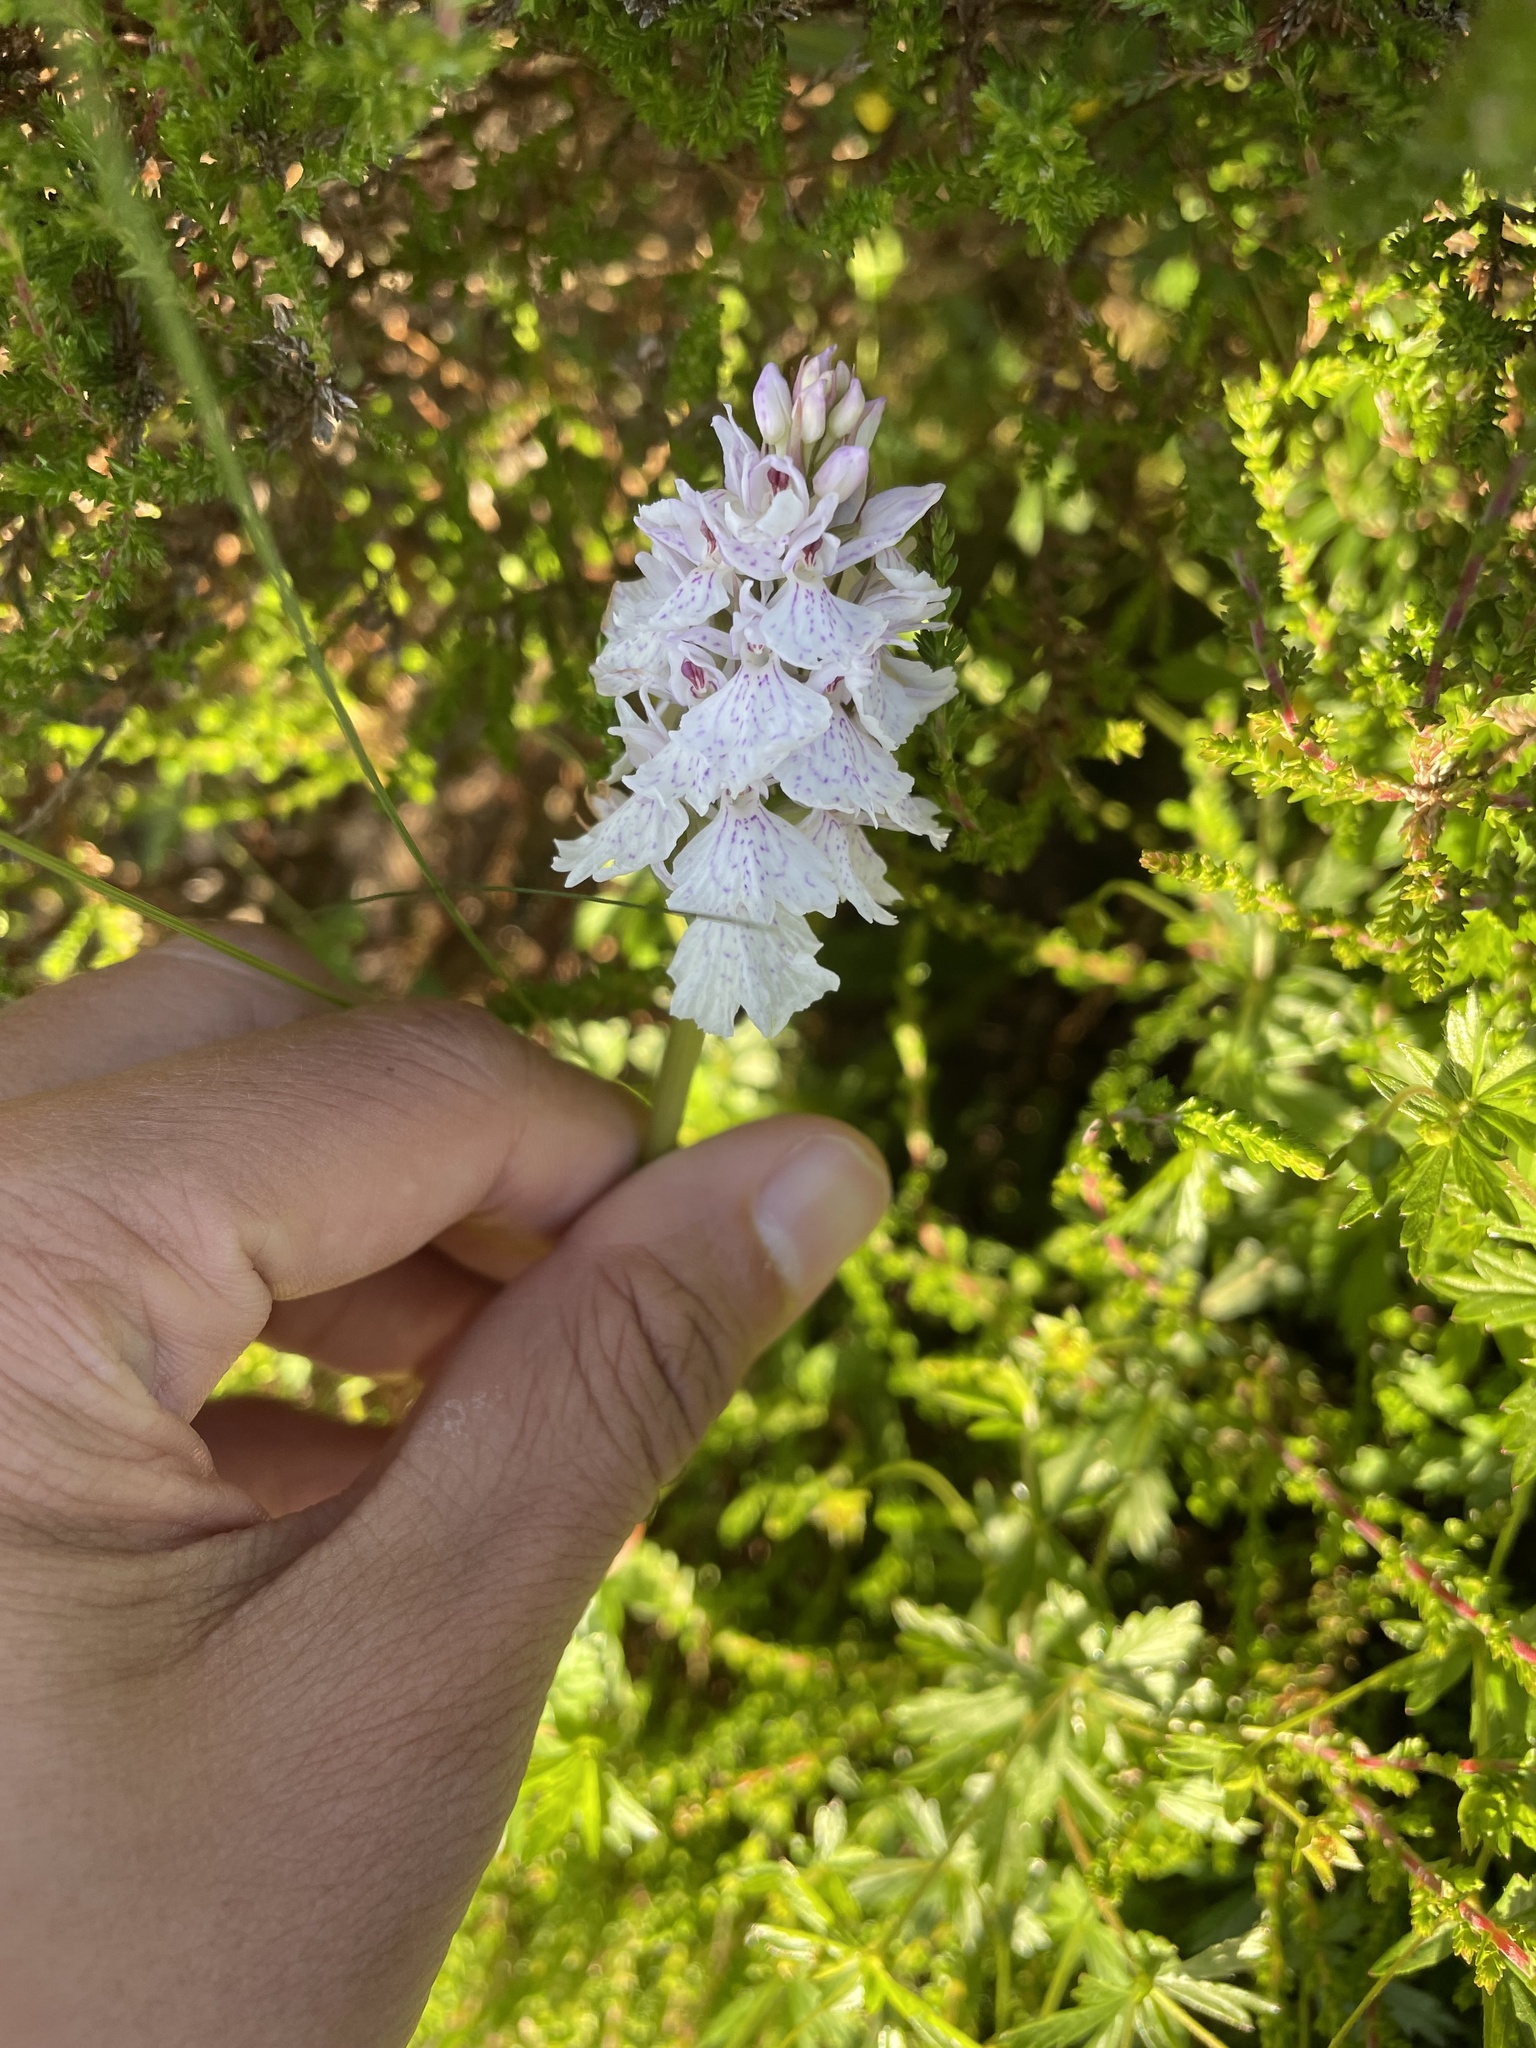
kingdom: Plantae
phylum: Tracheophyta
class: Liliopsida
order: Asparagales
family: Orchidaceae
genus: Dactylorhiza
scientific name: Dactylorhiza maculata
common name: Heath spotted-orchid
